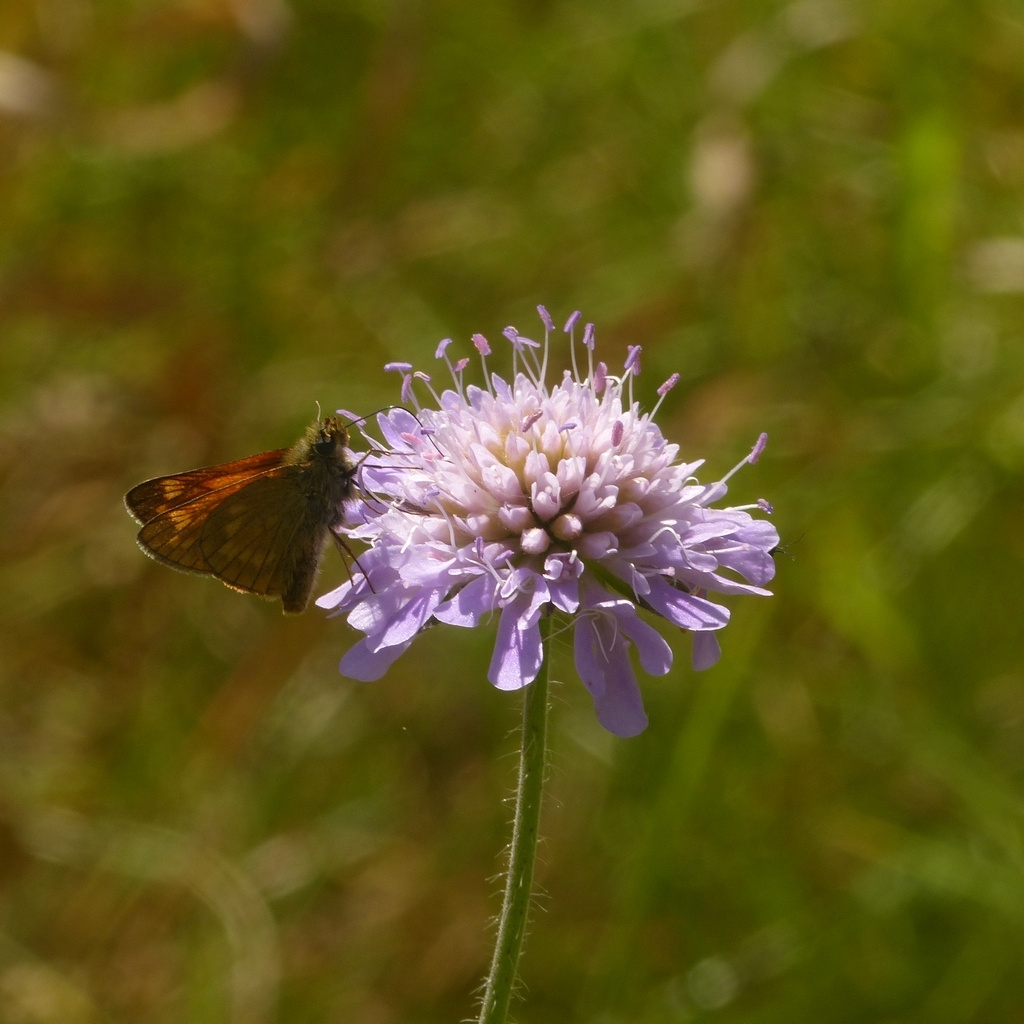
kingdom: Animalia
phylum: Arthropoda
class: Insecta
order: Lepidoptera
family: Hesperiidae
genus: Ochlodes
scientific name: Ochlodes venata
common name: Large skipper
